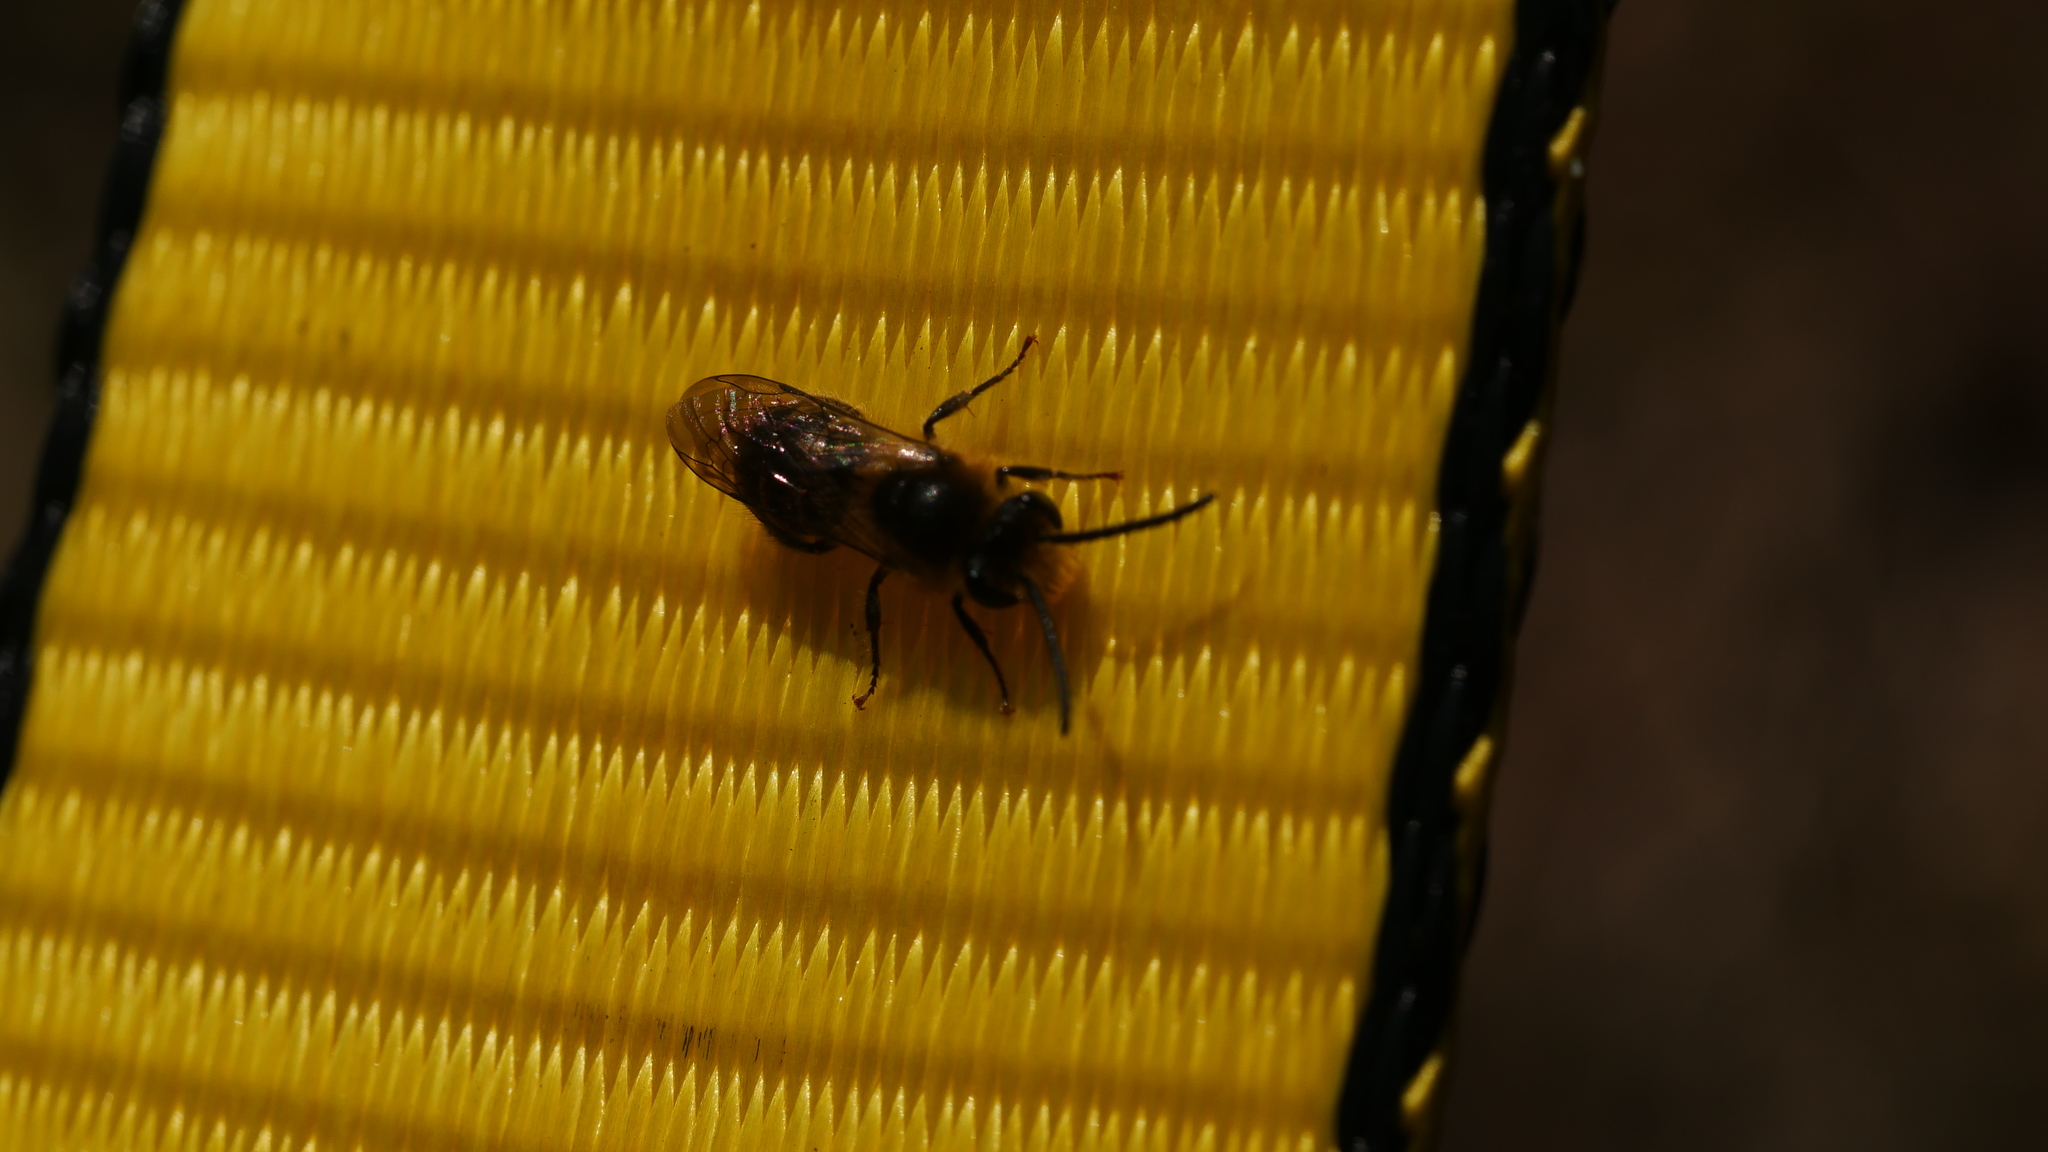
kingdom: Animalia
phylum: Arthropoda
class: Insecta
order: Hymenoptera
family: Colletidae
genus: Colletes
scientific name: Colletes inaequalis
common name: Unequal cellophane bee
